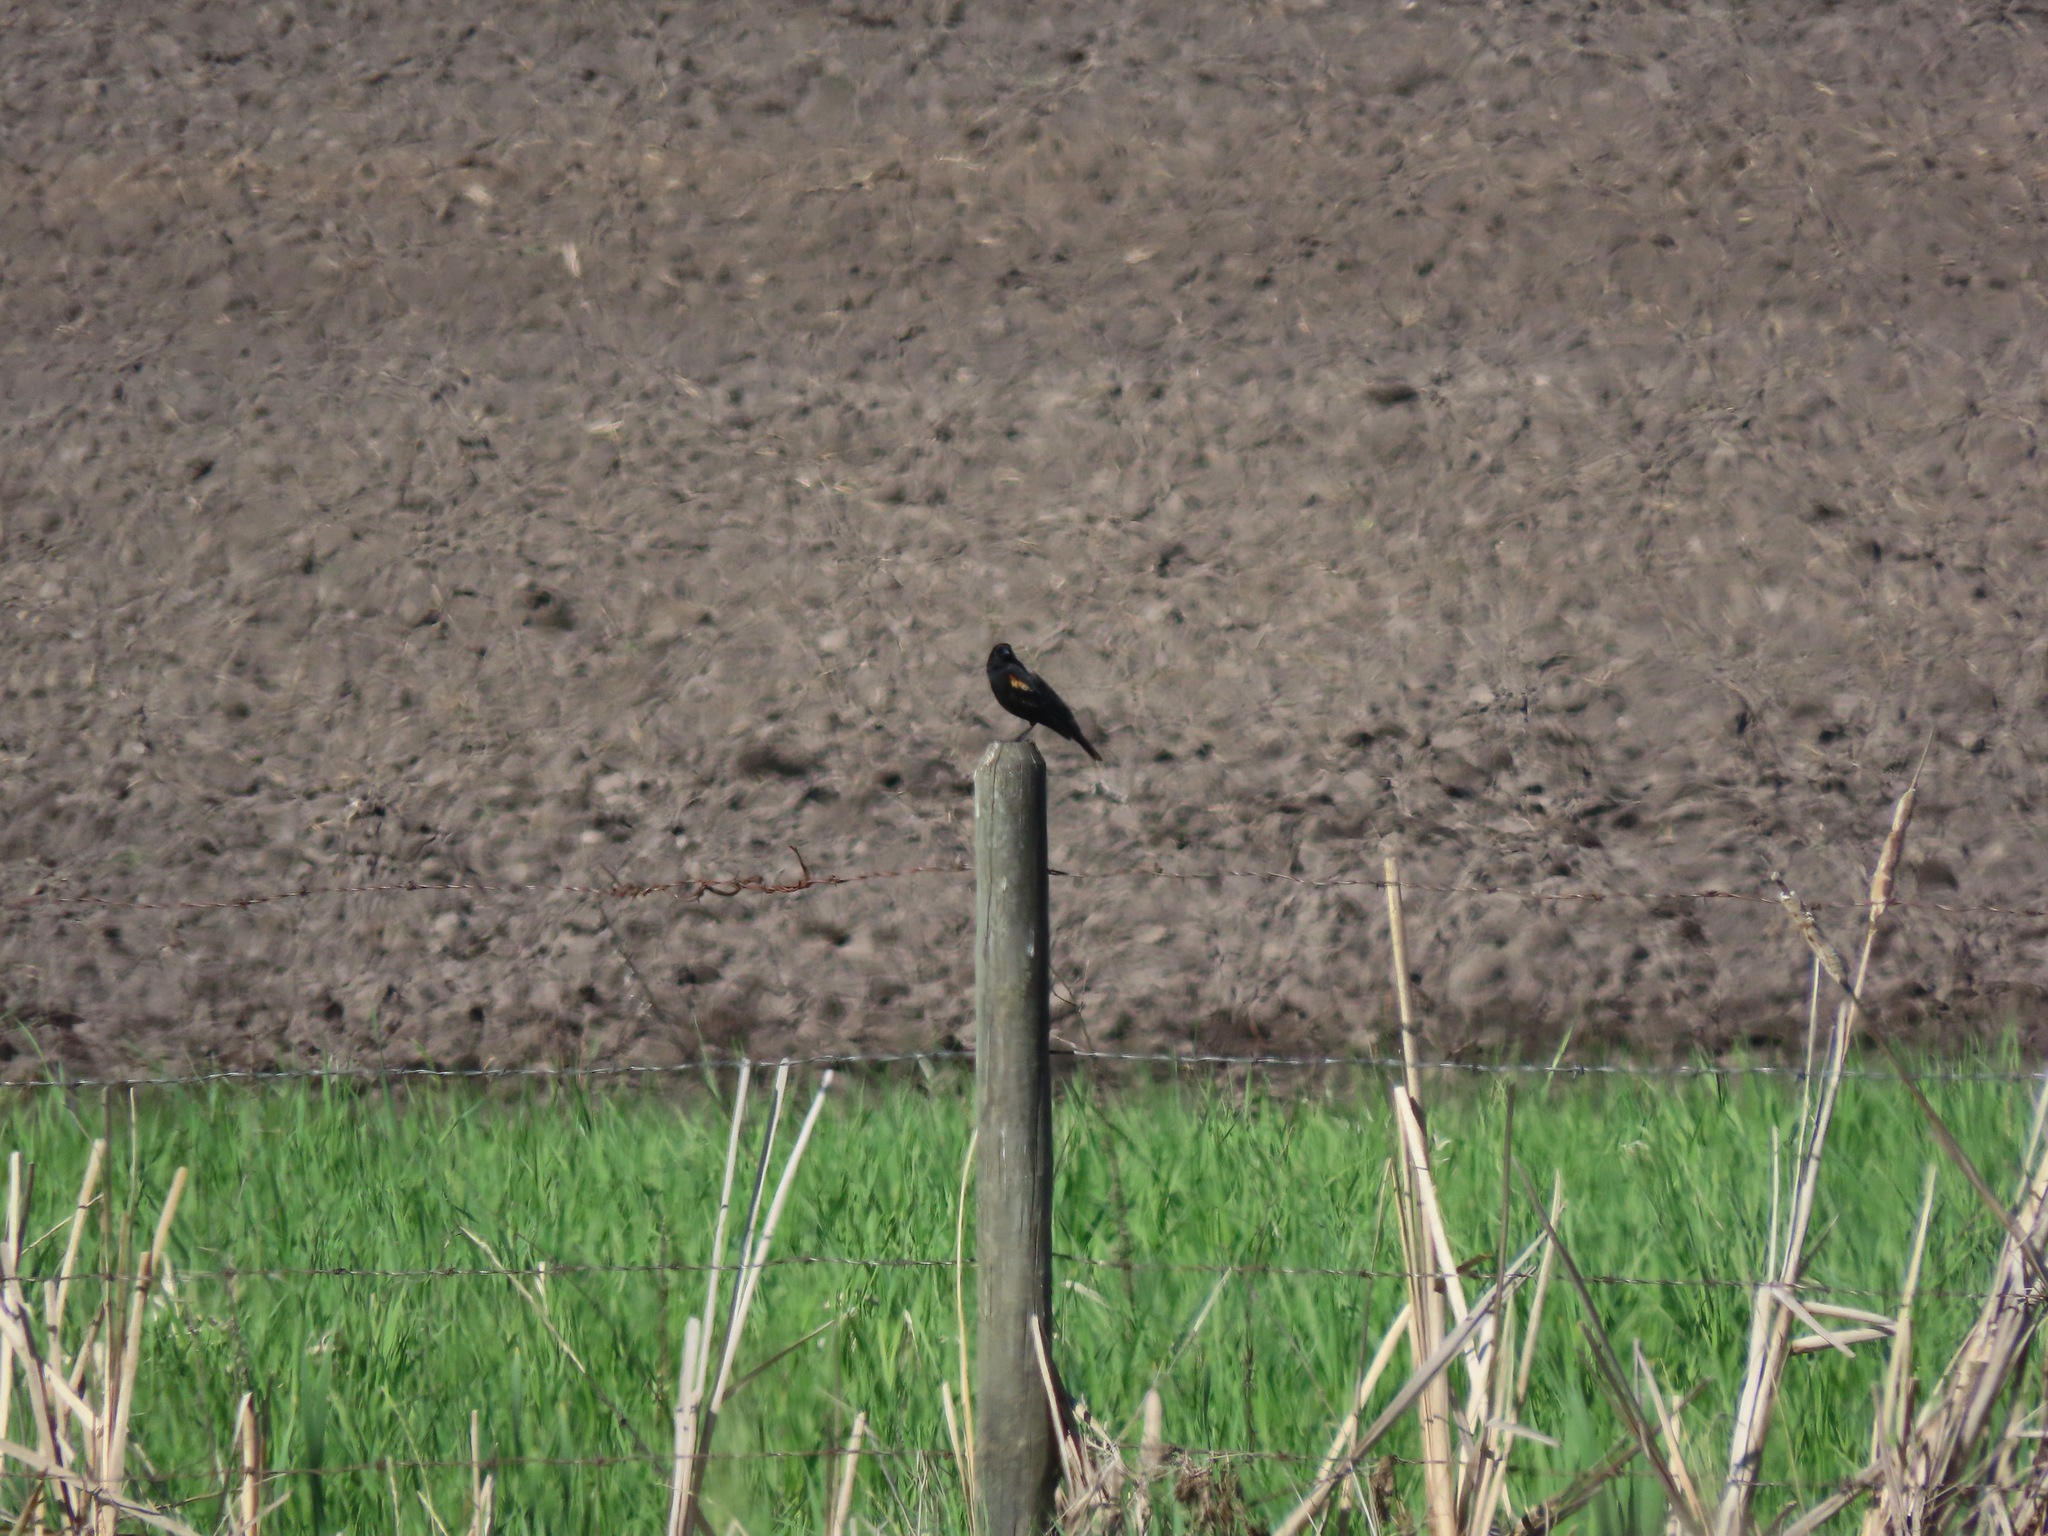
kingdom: Animalia
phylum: Chordata
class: Aves
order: Passeriformes
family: Icteridae
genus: Agelaius
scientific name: Agelaius phoeniceus
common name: Red-winged blackbird
